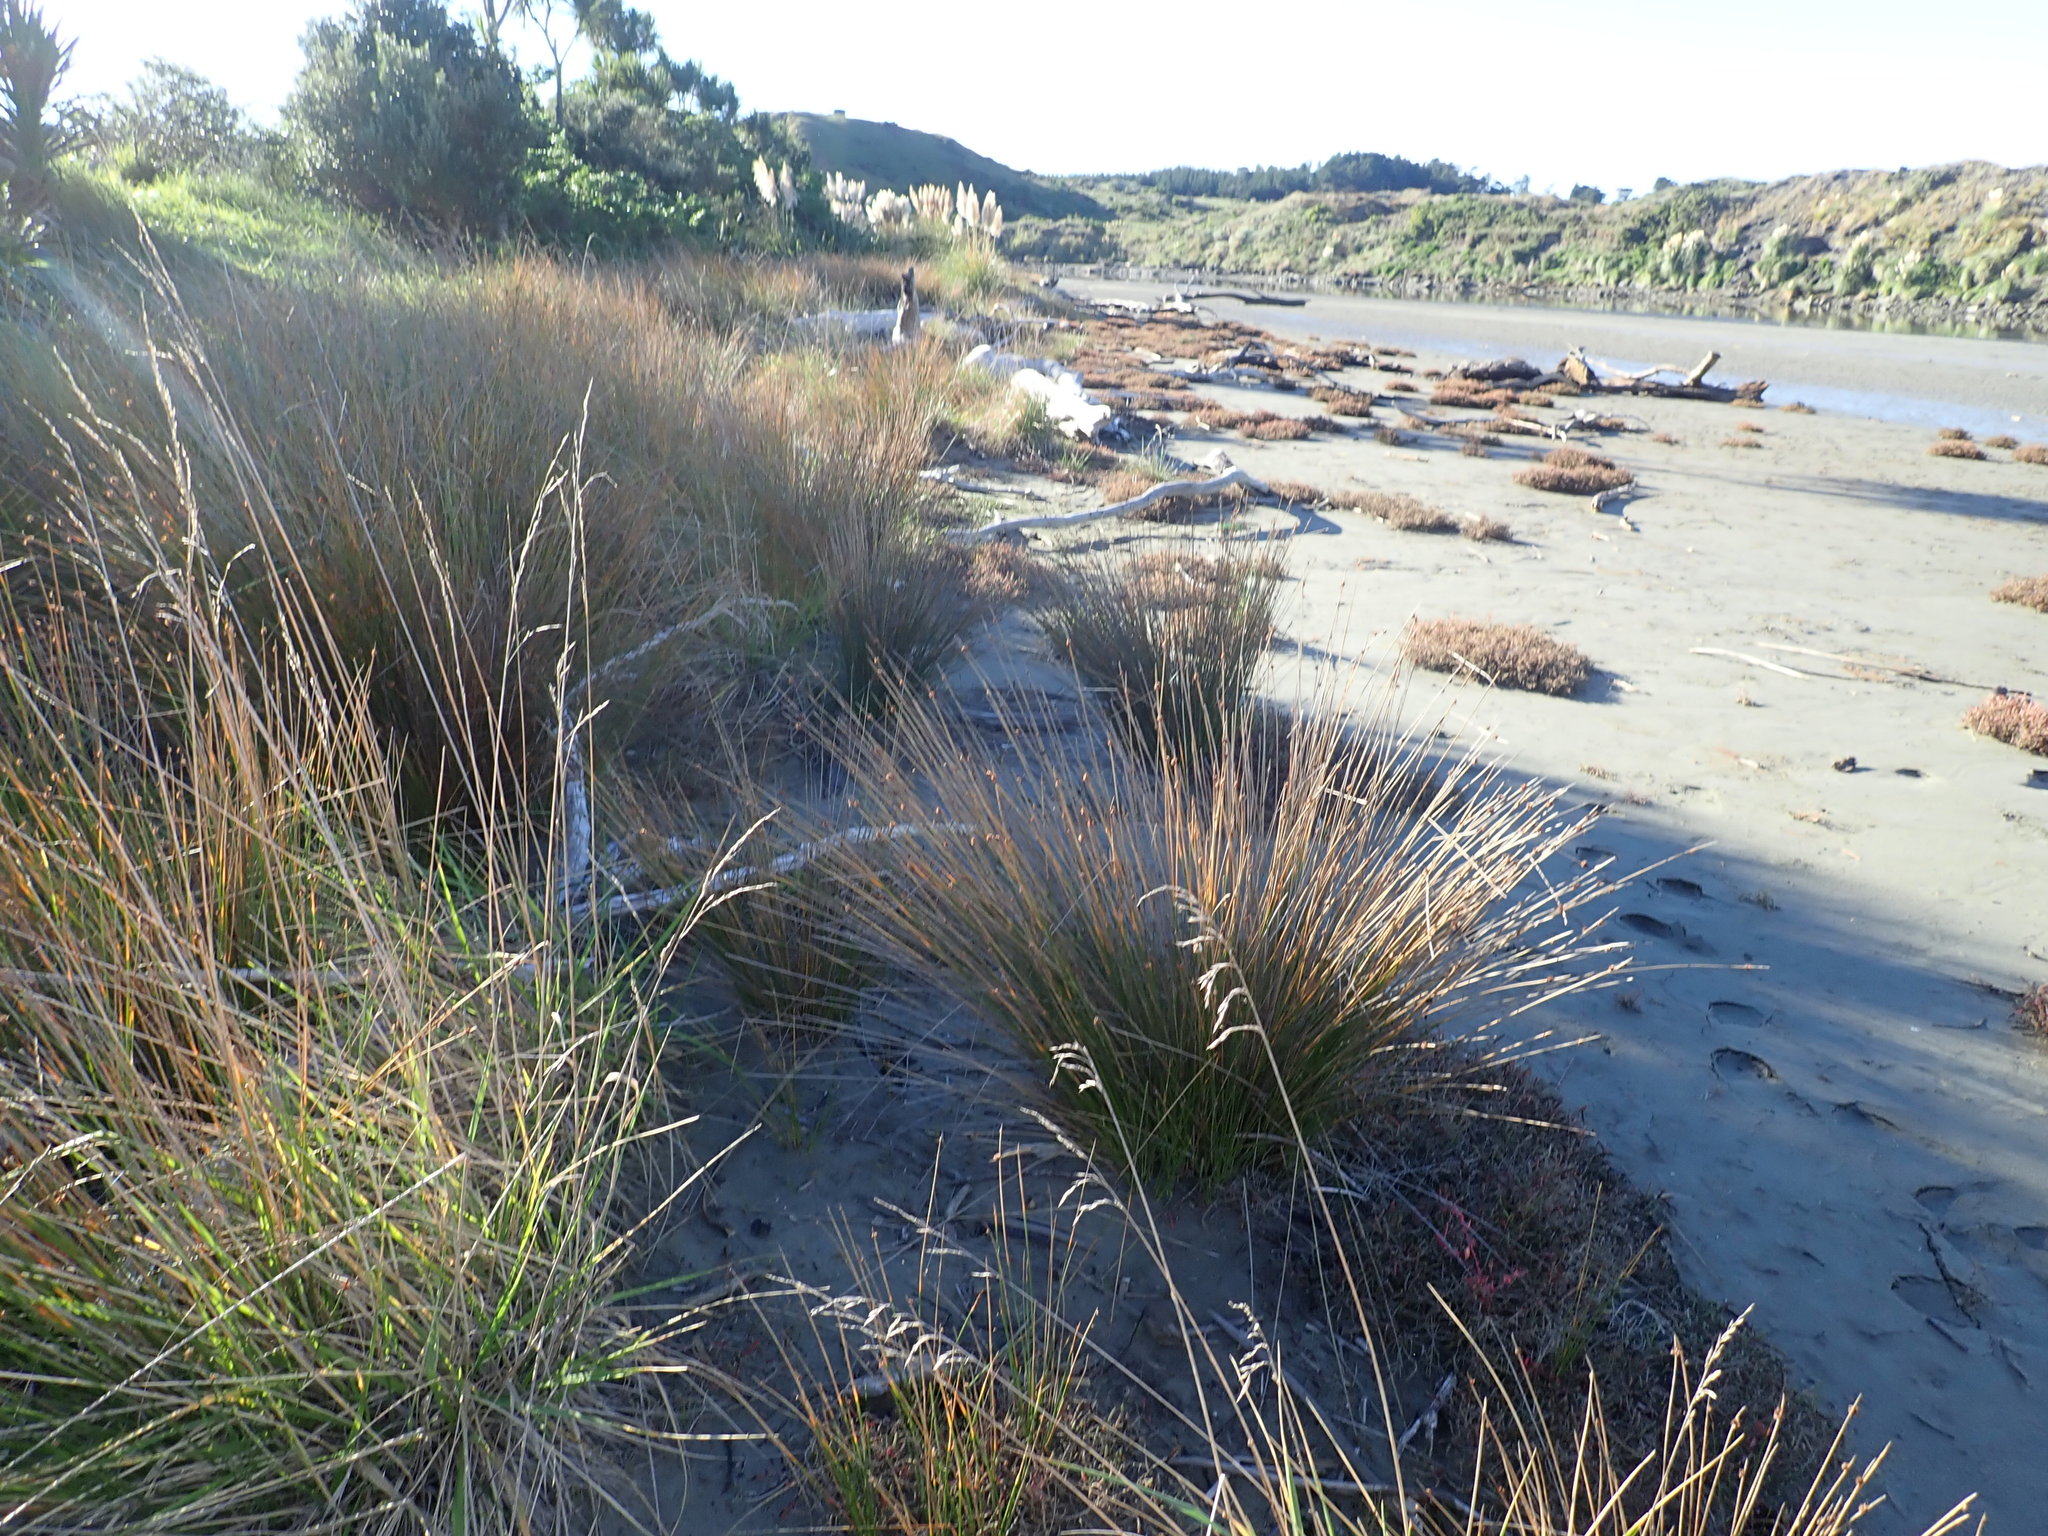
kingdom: Plantae
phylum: Tracheophyta
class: Liliopsida
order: Poales
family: Cyperaceae
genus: Ficinia
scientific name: Ficinia nodosa
